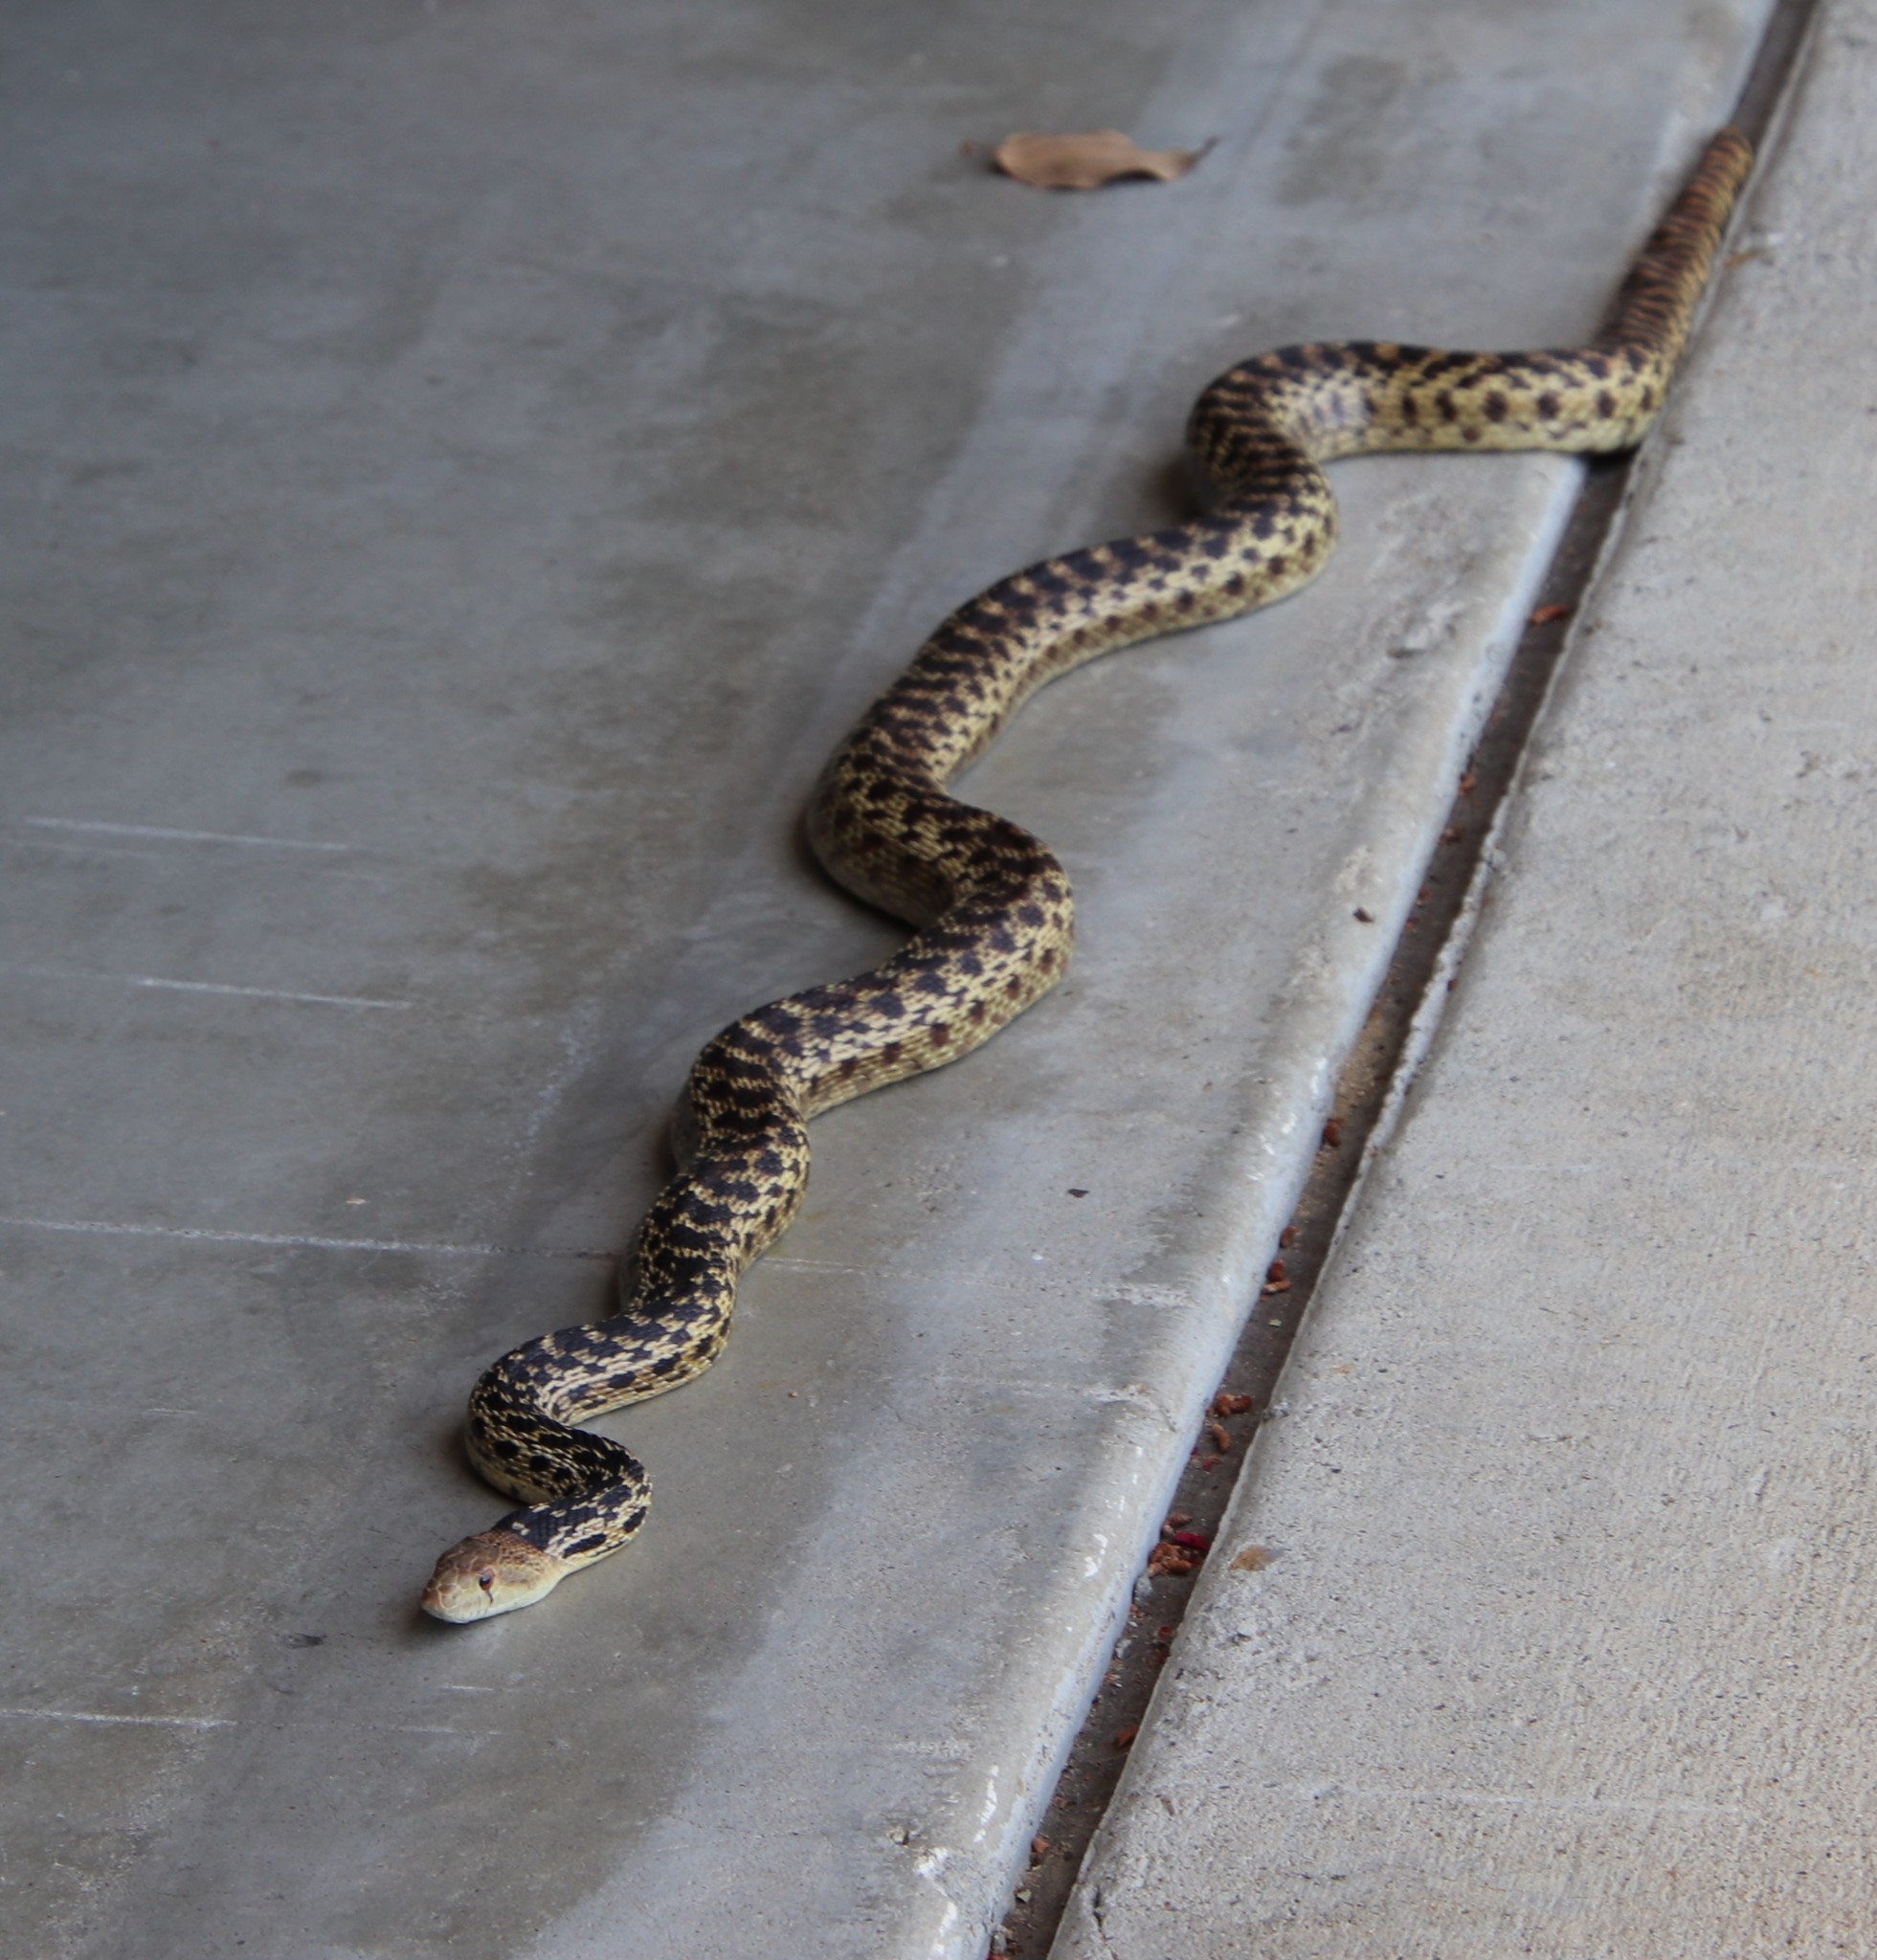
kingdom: Animalia
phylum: Chordata
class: Squamata
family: Colubridae
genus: Pituophis
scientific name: Pituophis catenifer
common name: Gopher snake
